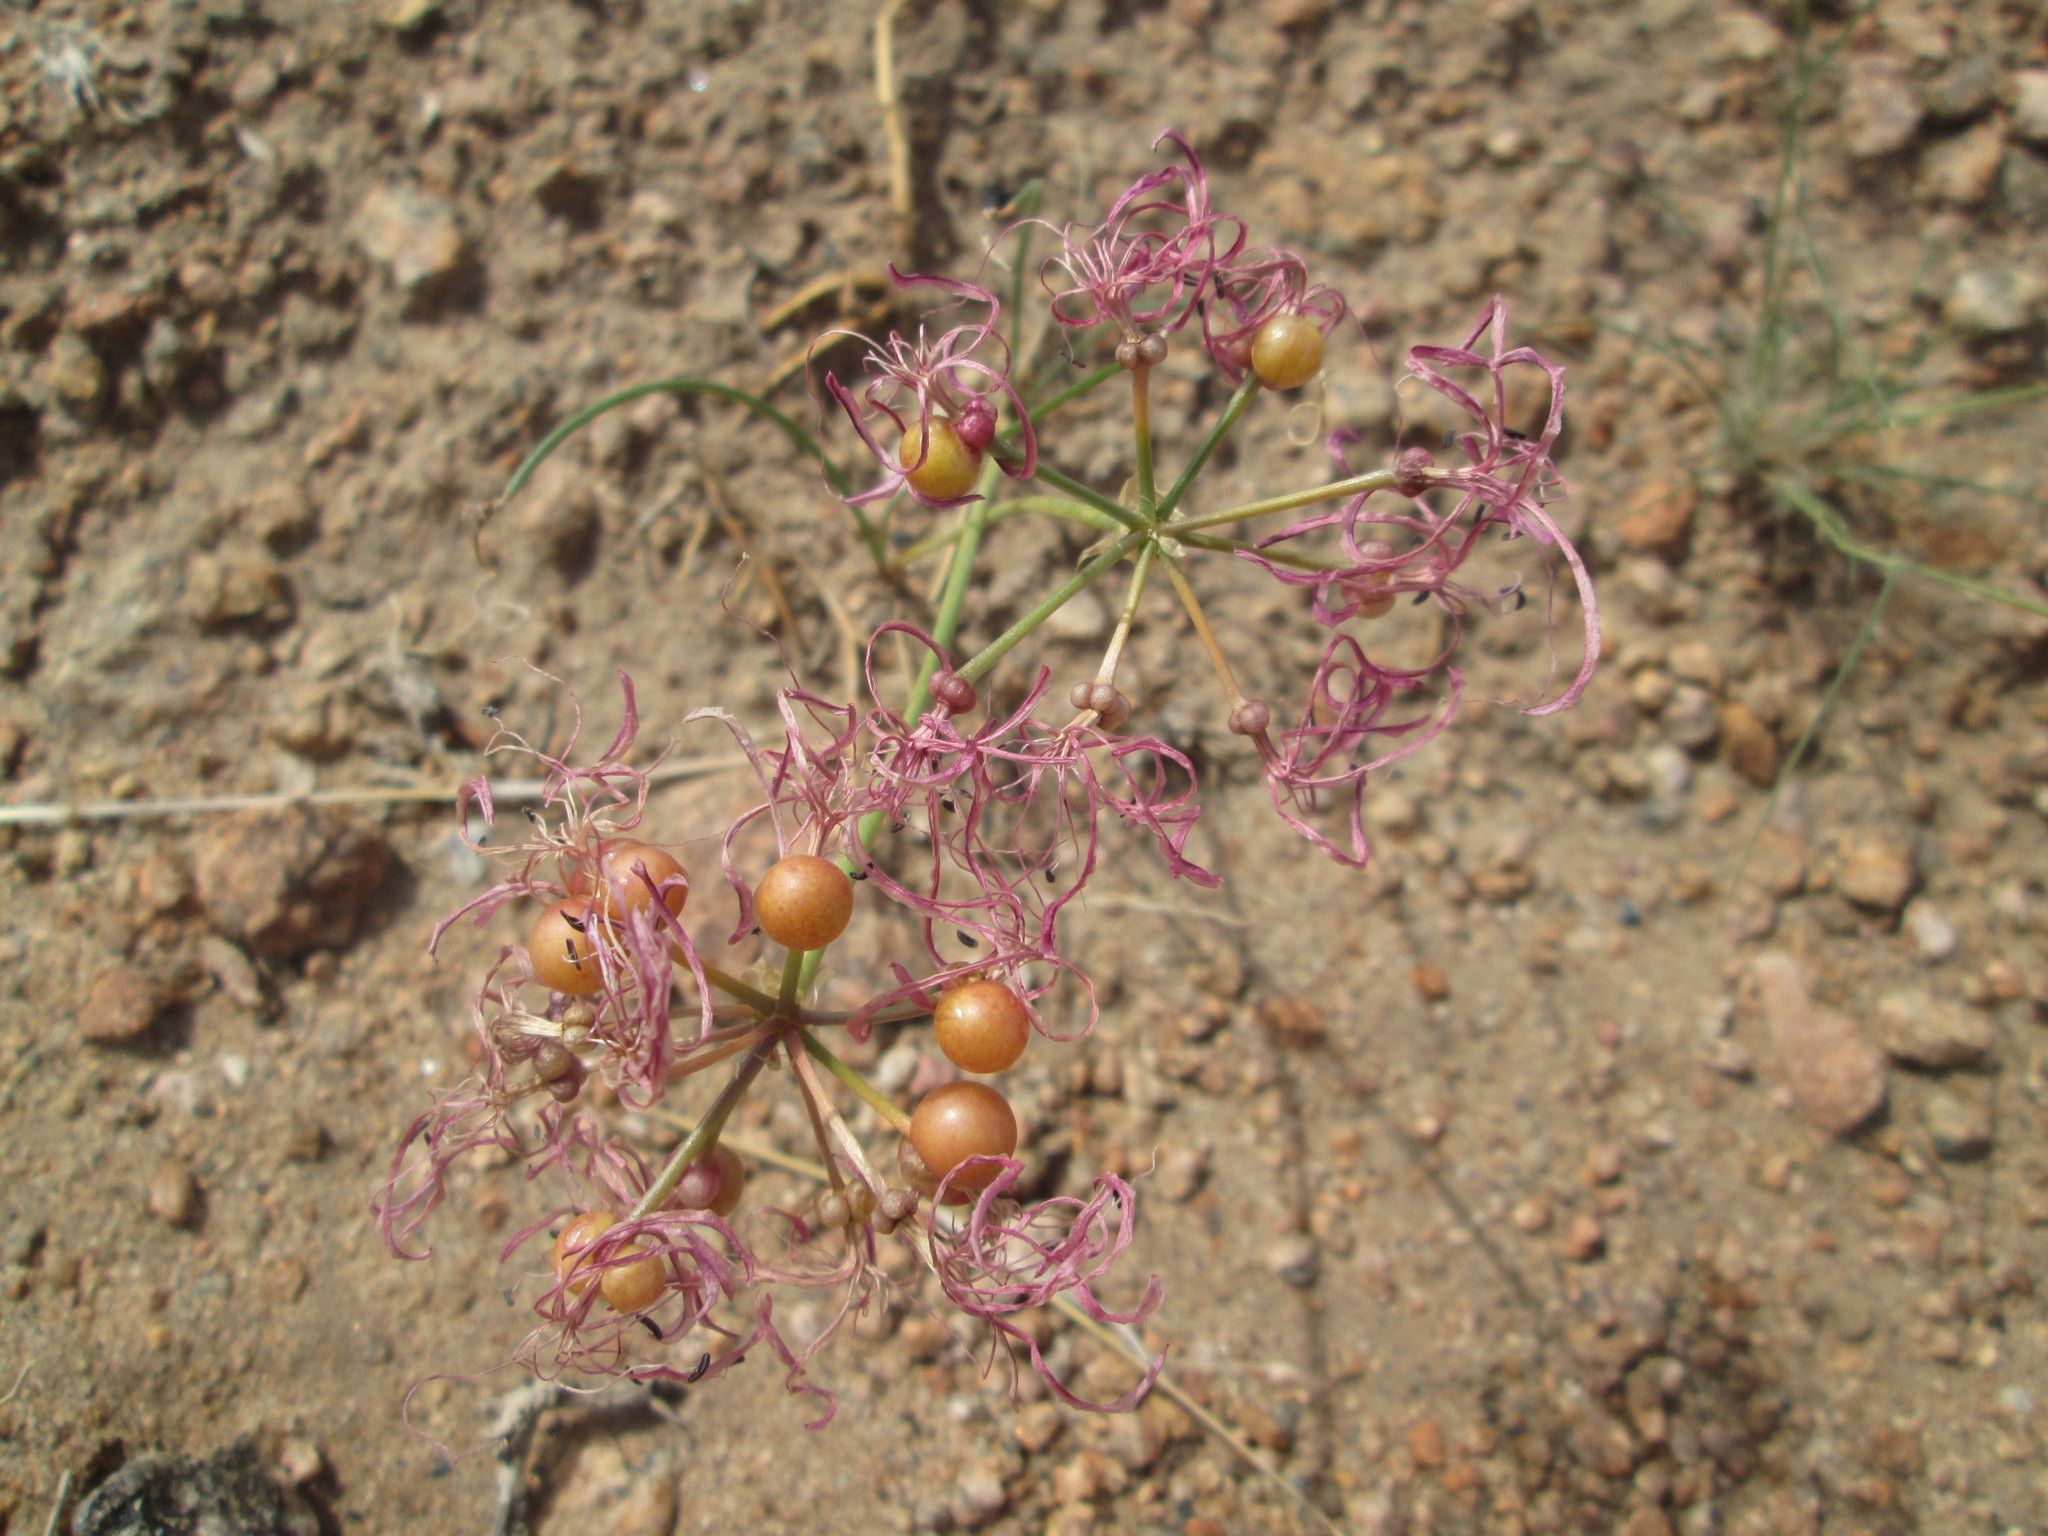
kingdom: Plantae
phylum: Tracheophyta
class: Liliopsida
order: Asparagales
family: Amaryllidaceae
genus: Nerine
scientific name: Nerine gaberonensis
